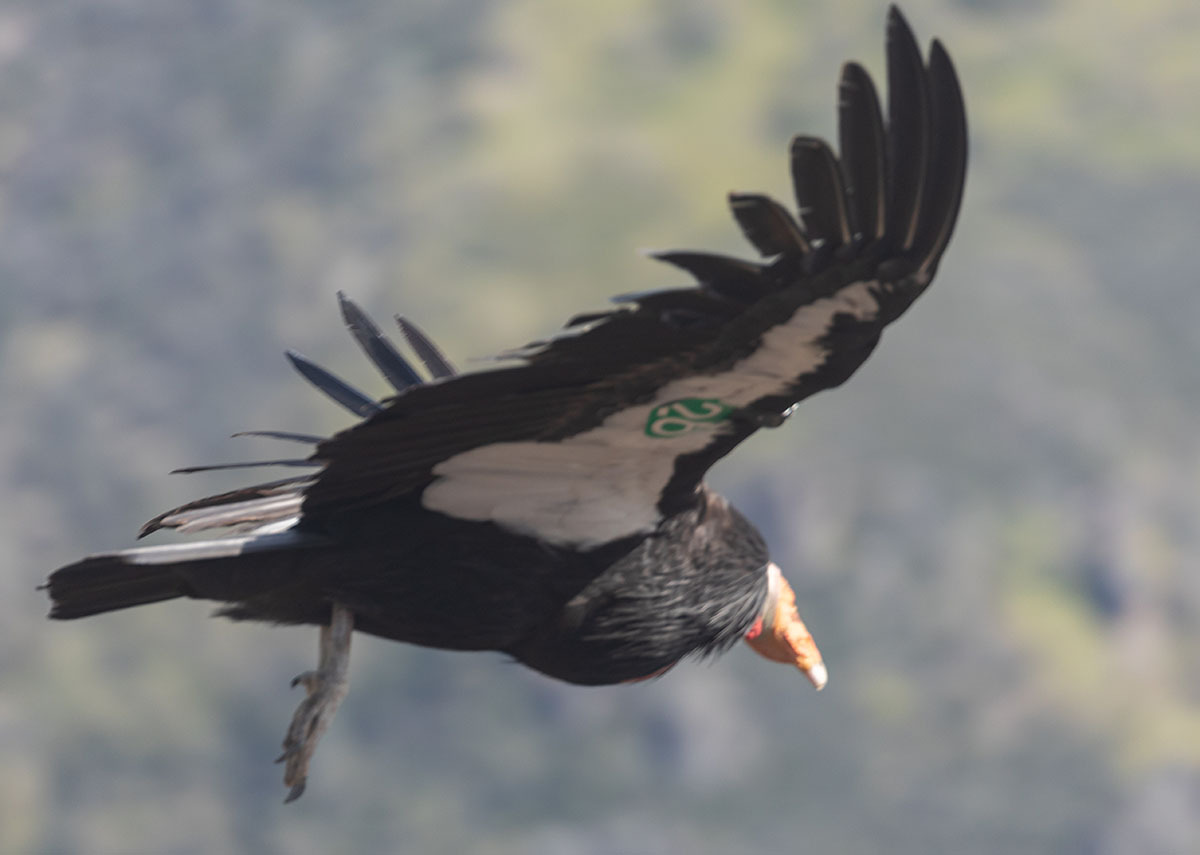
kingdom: Animalia
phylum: Chordata
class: Aves
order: Accipitriformes
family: Cathartidae
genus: Gymnogyps
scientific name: Gymnogyps californianus
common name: California condor
